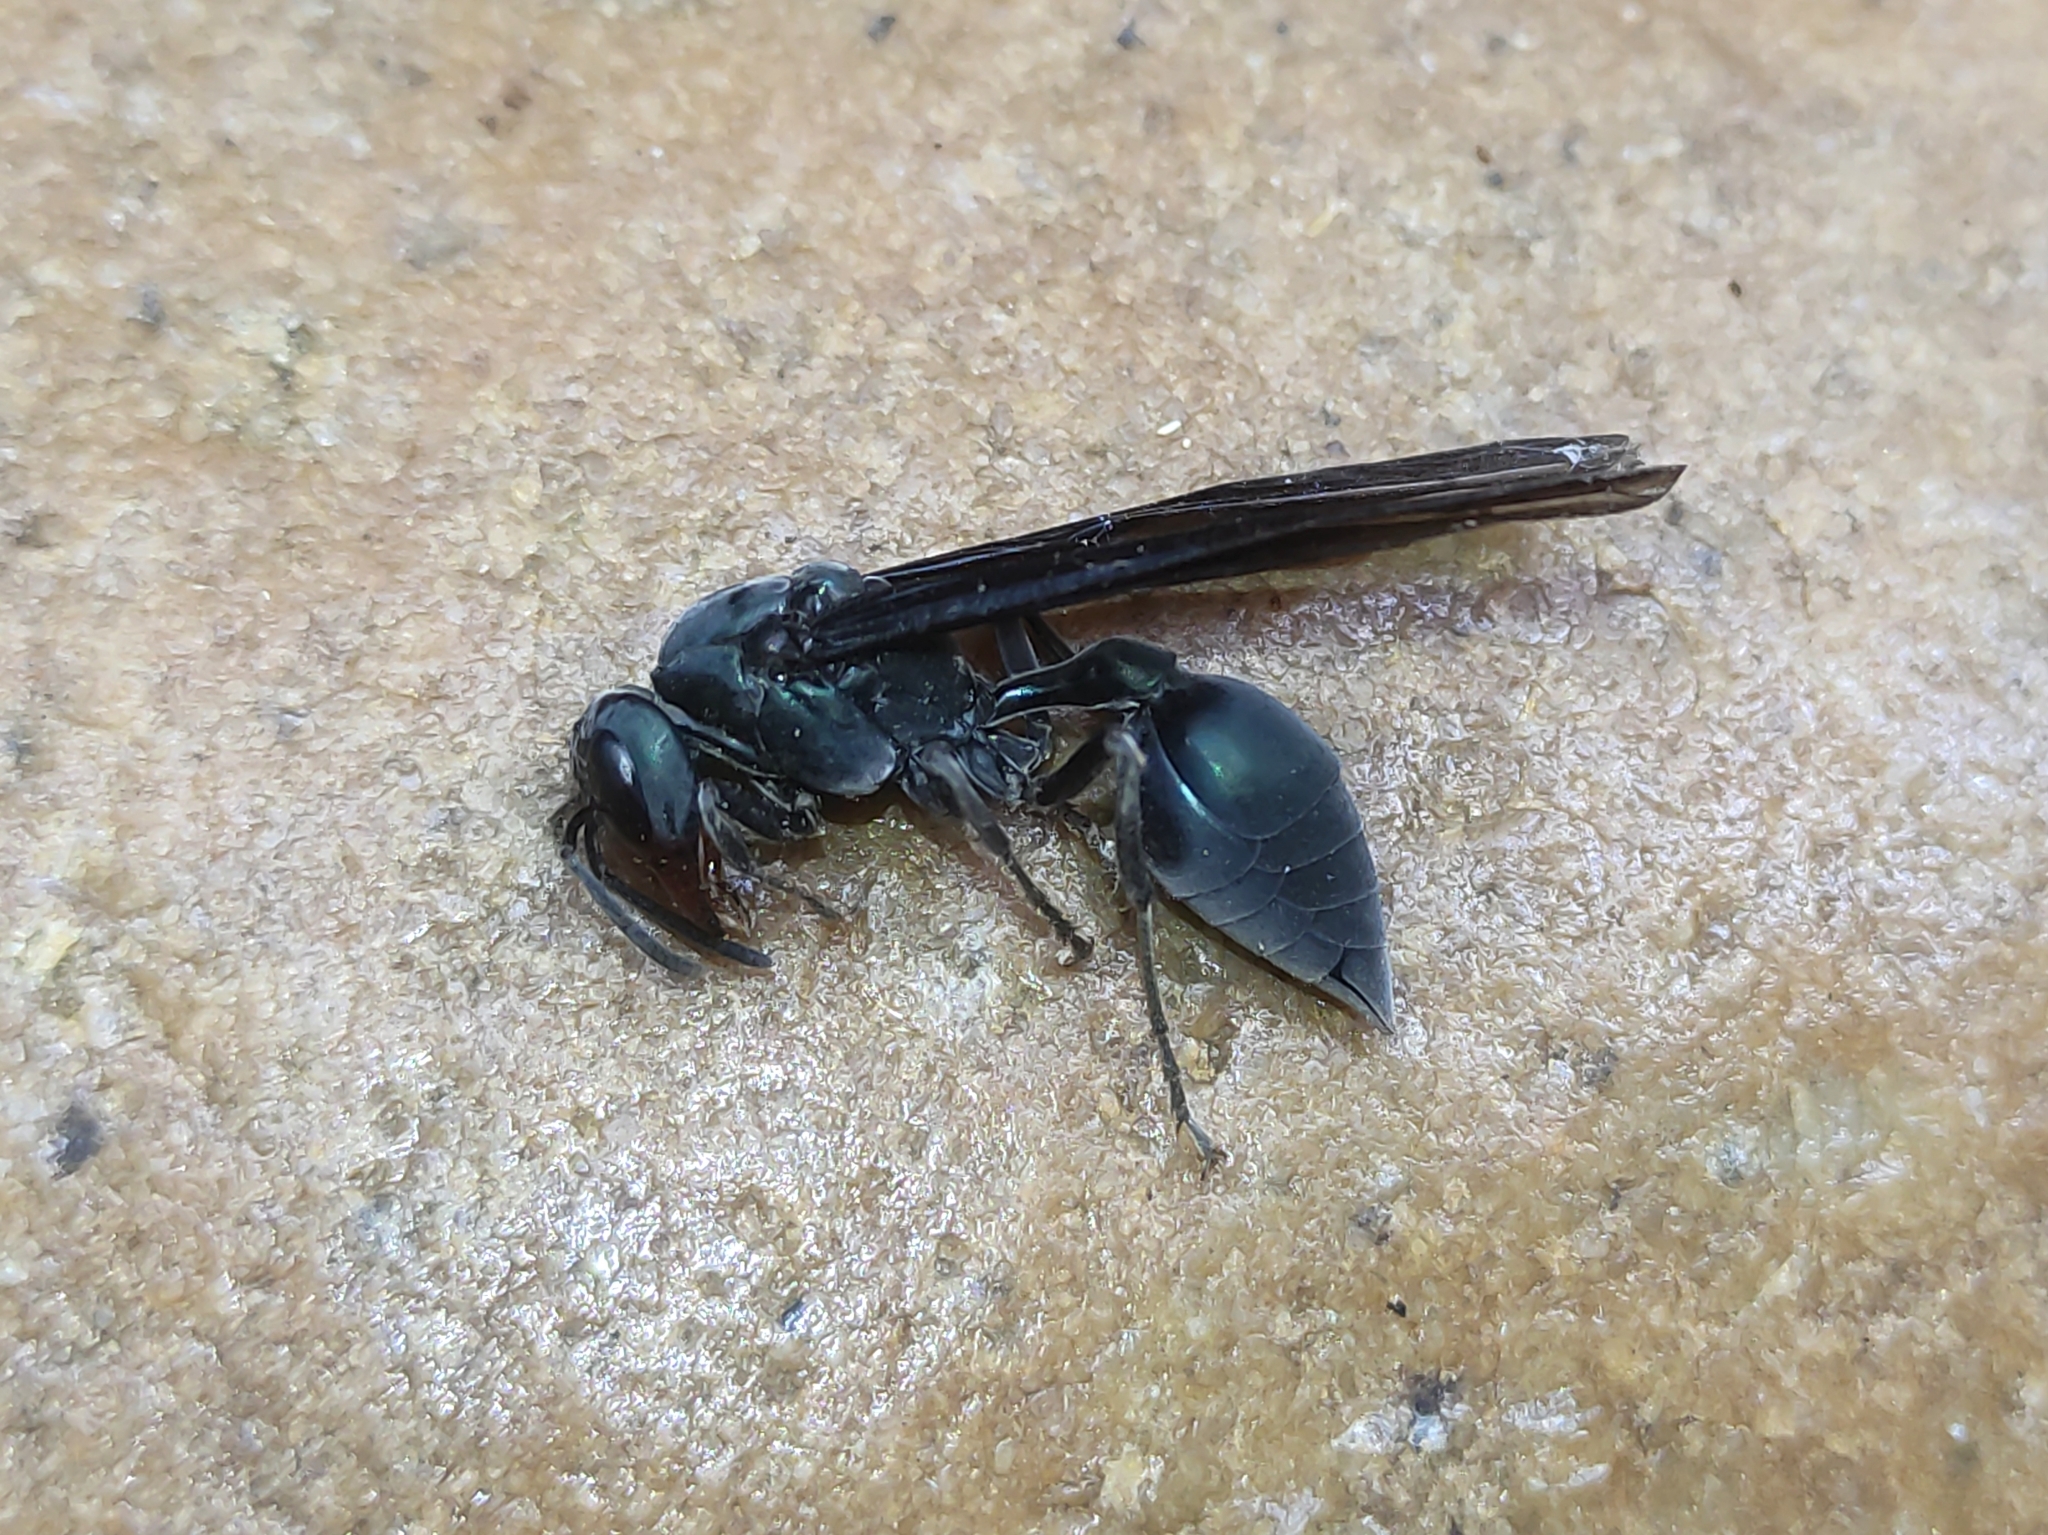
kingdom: Animalia
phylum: Arthropoda
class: Insecta
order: Hymenoptera
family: Vespidae
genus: Synoeca
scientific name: Synoeca cyanea
